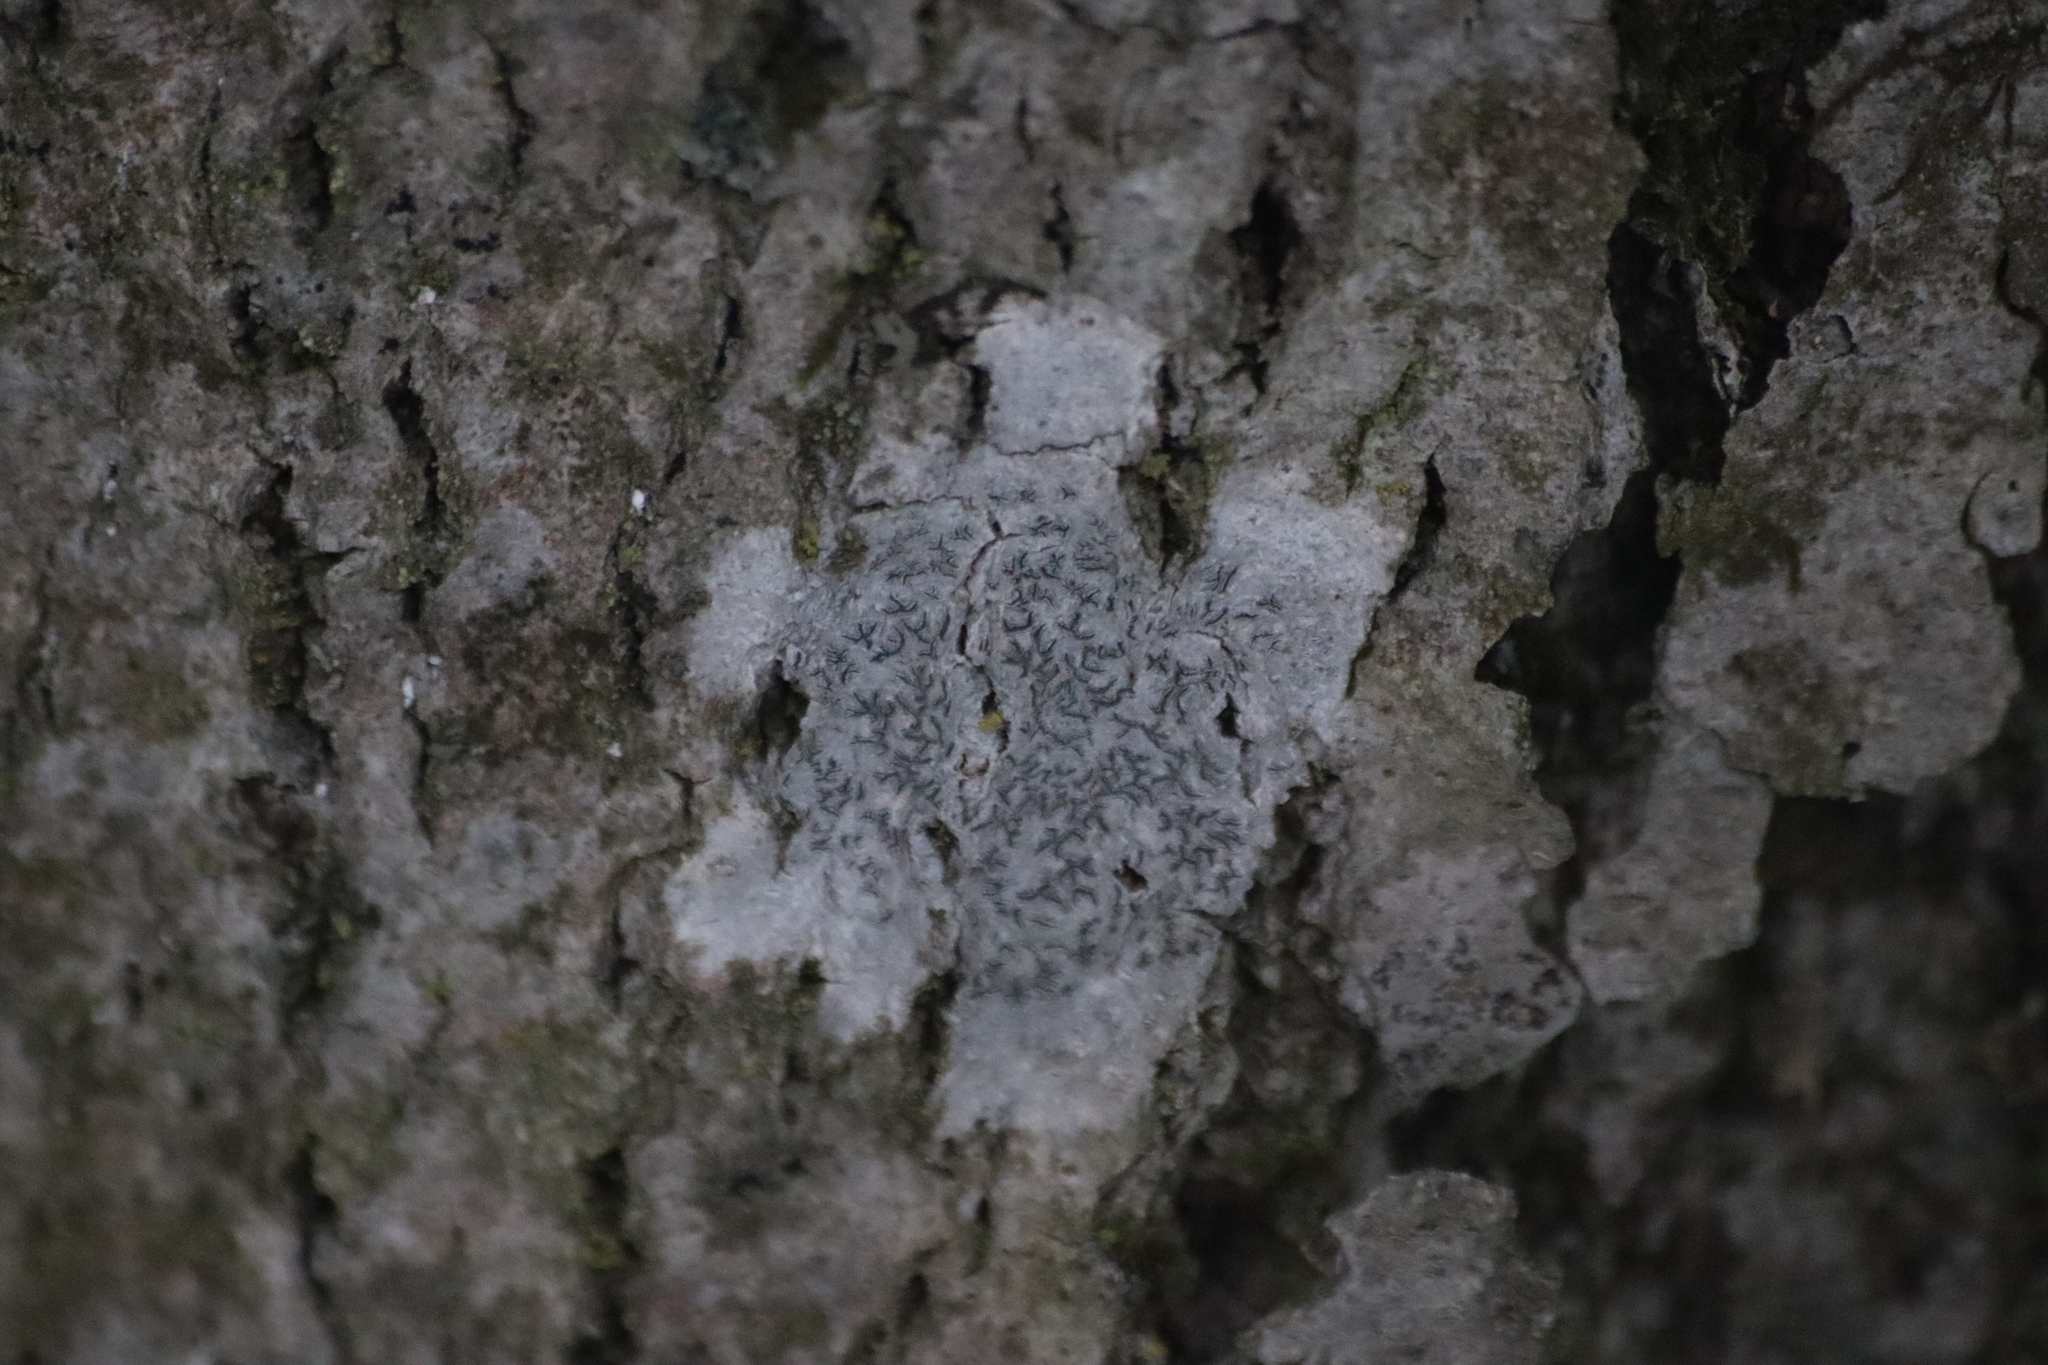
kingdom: Fungi
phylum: Ascomycota
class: Lecanoromycetes
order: Ostropales
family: Graphidaceae
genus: Graphis
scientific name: Graphis scripta
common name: Script lichen
